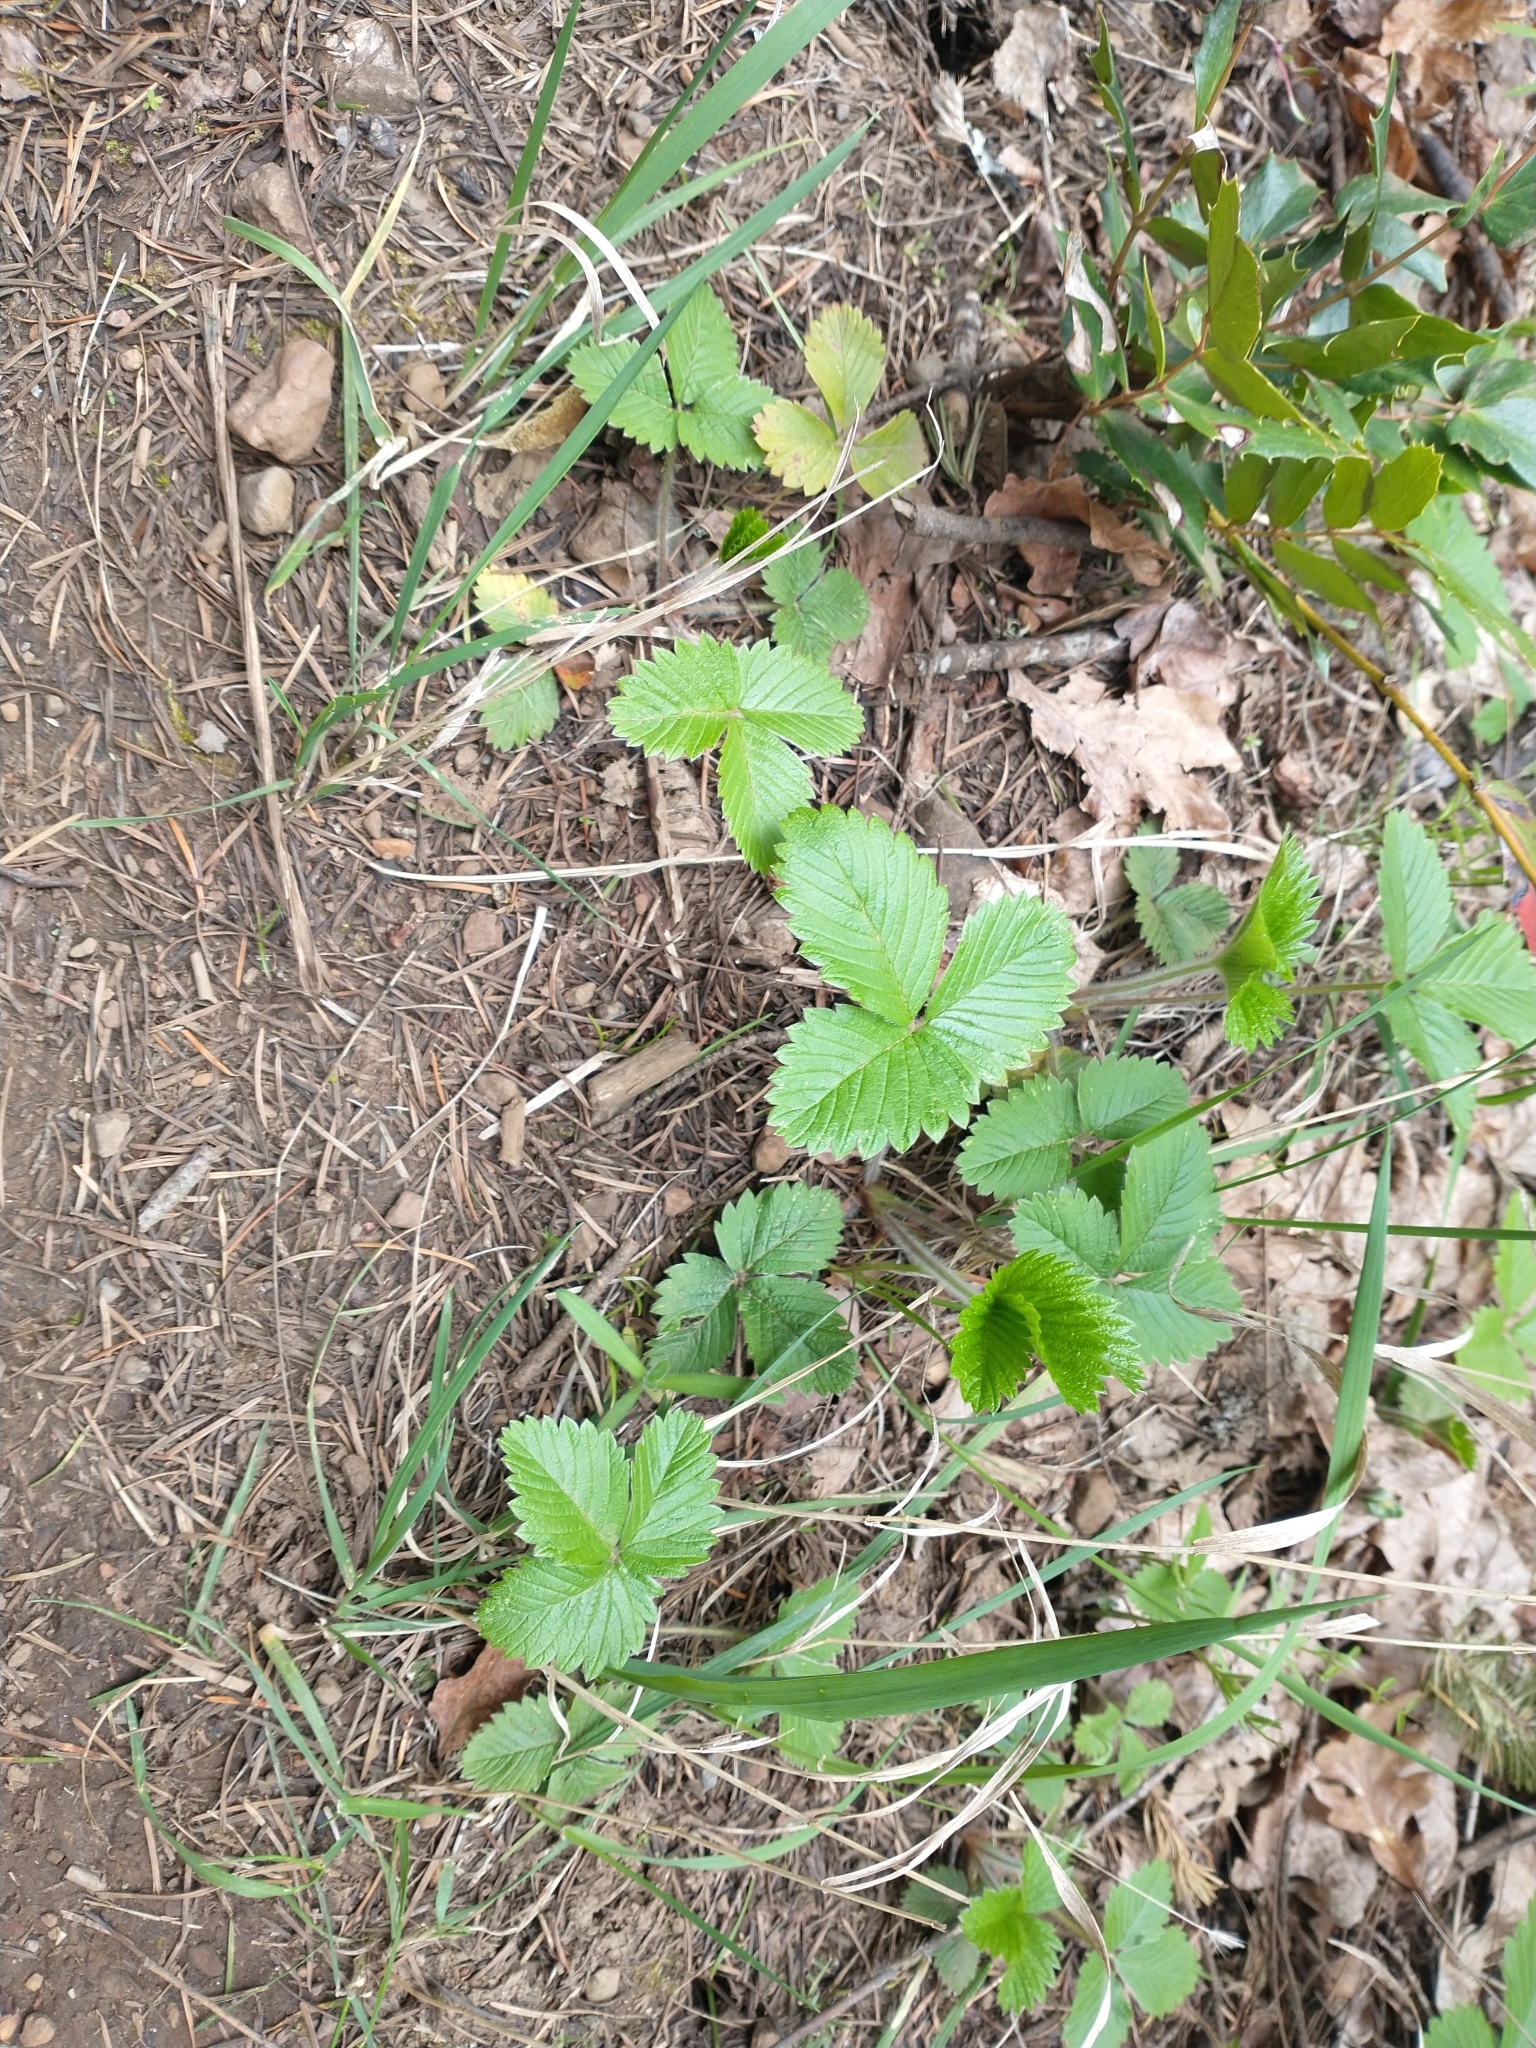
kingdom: Plantae
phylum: Tracheophyta
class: Magnoliopsida
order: Rosales
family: Rosaceae
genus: Fragaria
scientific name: Fragaria vesca
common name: Wild strawberry
